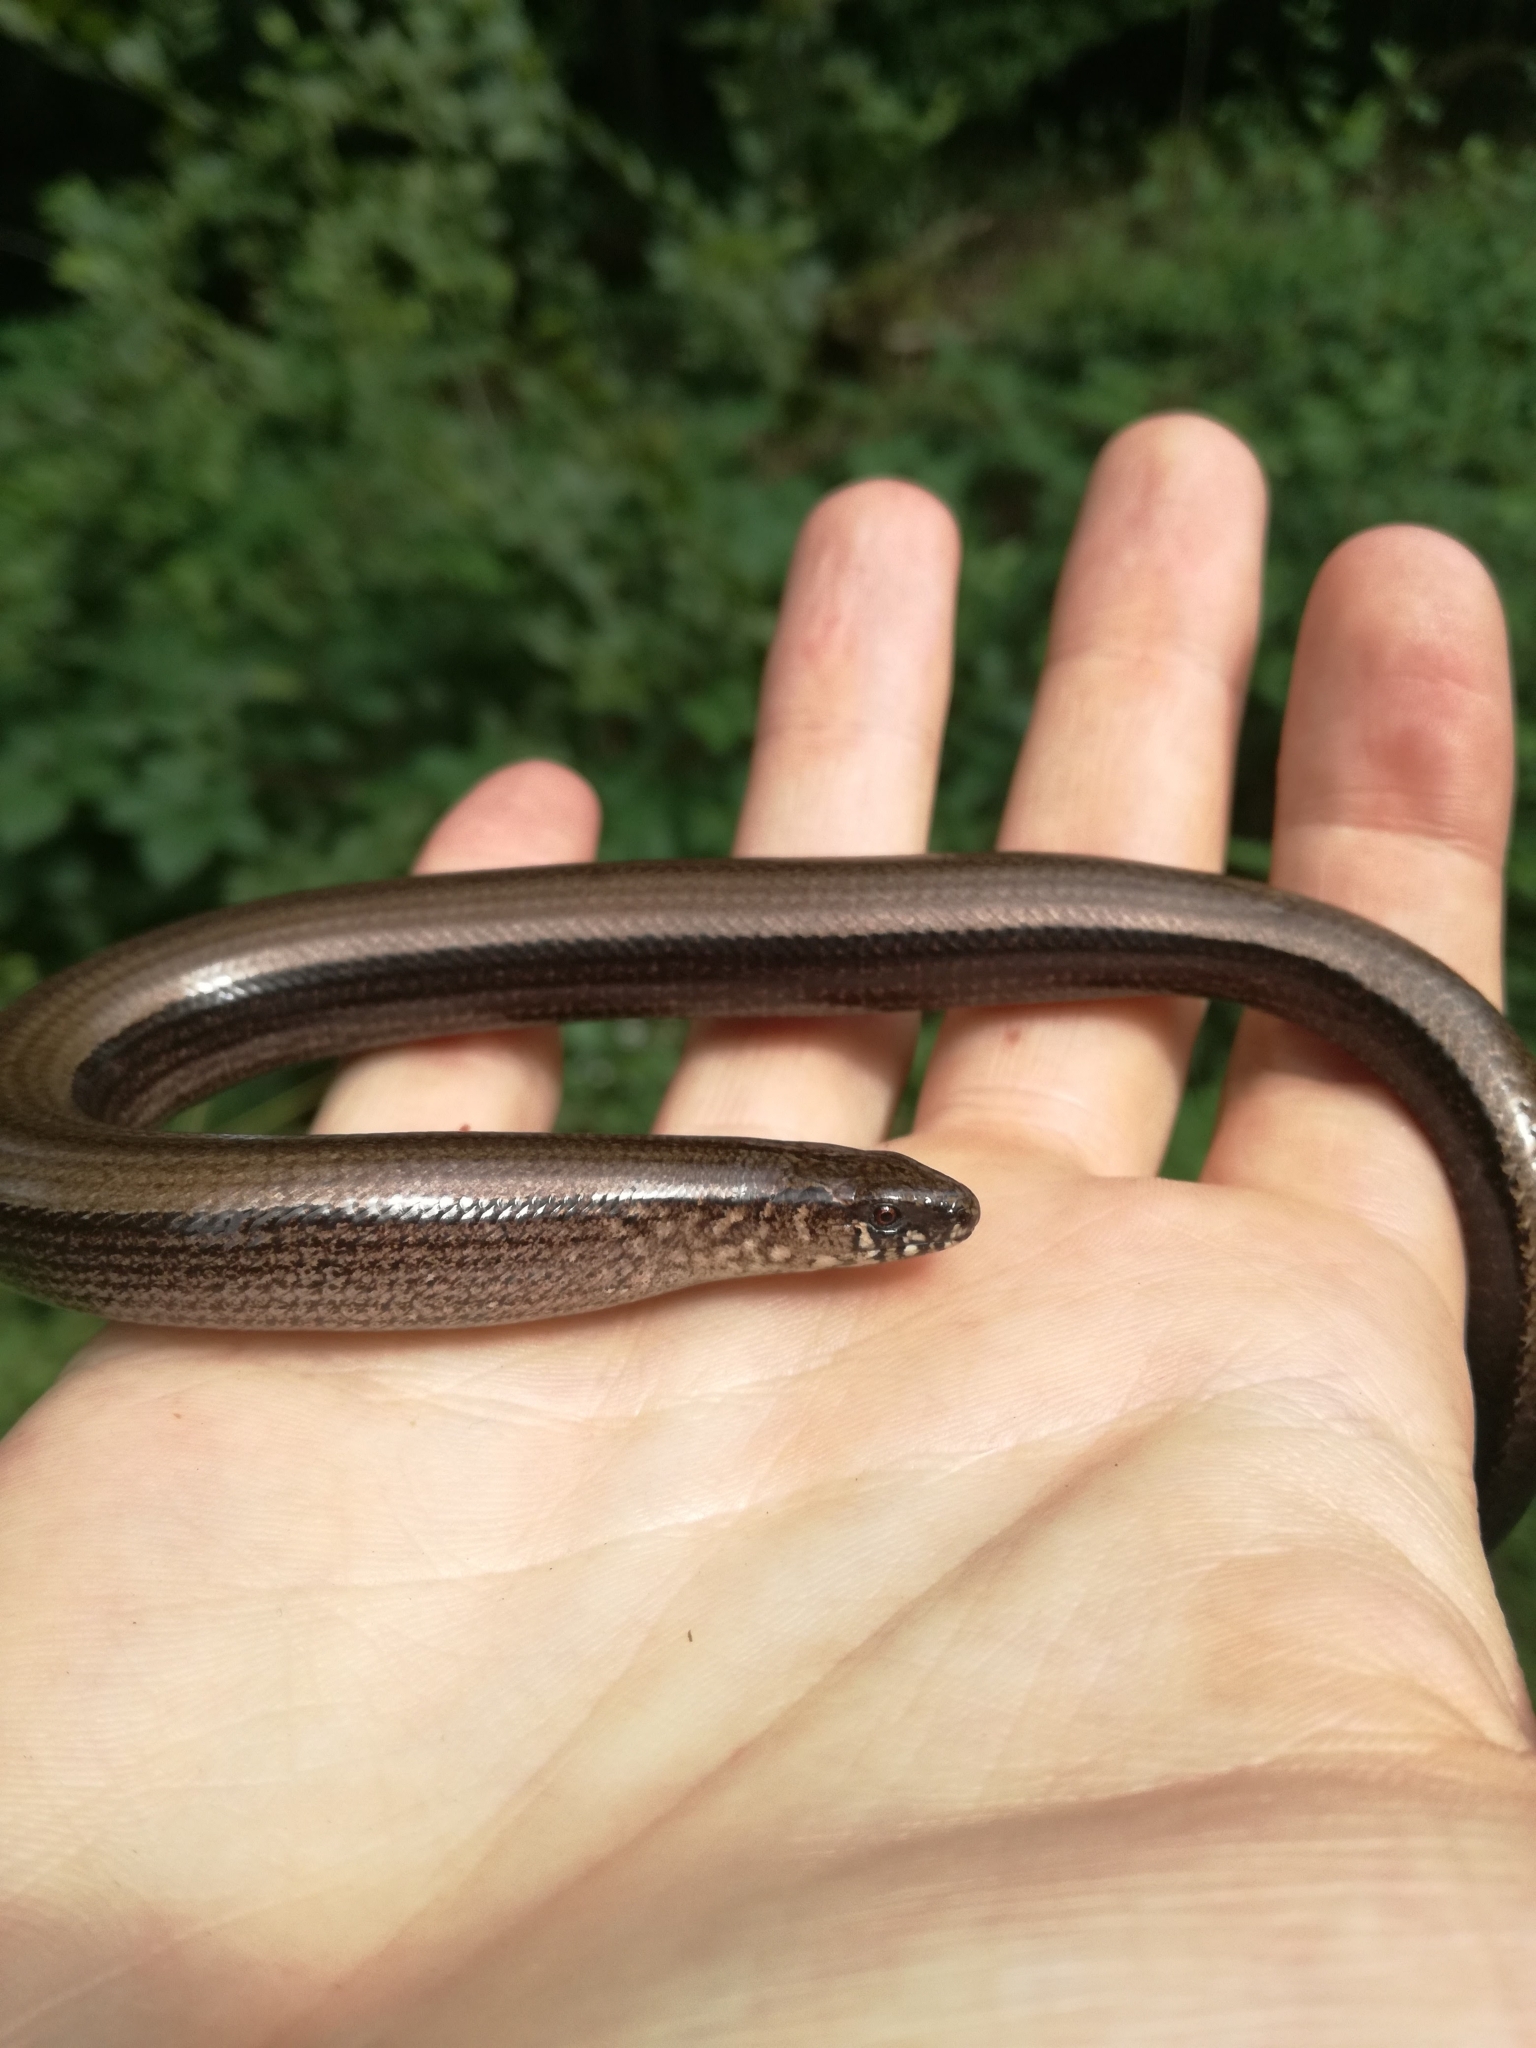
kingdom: Animalia
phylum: Chordata
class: Squamata
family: Anguidae
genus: Anguis
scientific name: Anguis fragilis
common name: Slow worm
